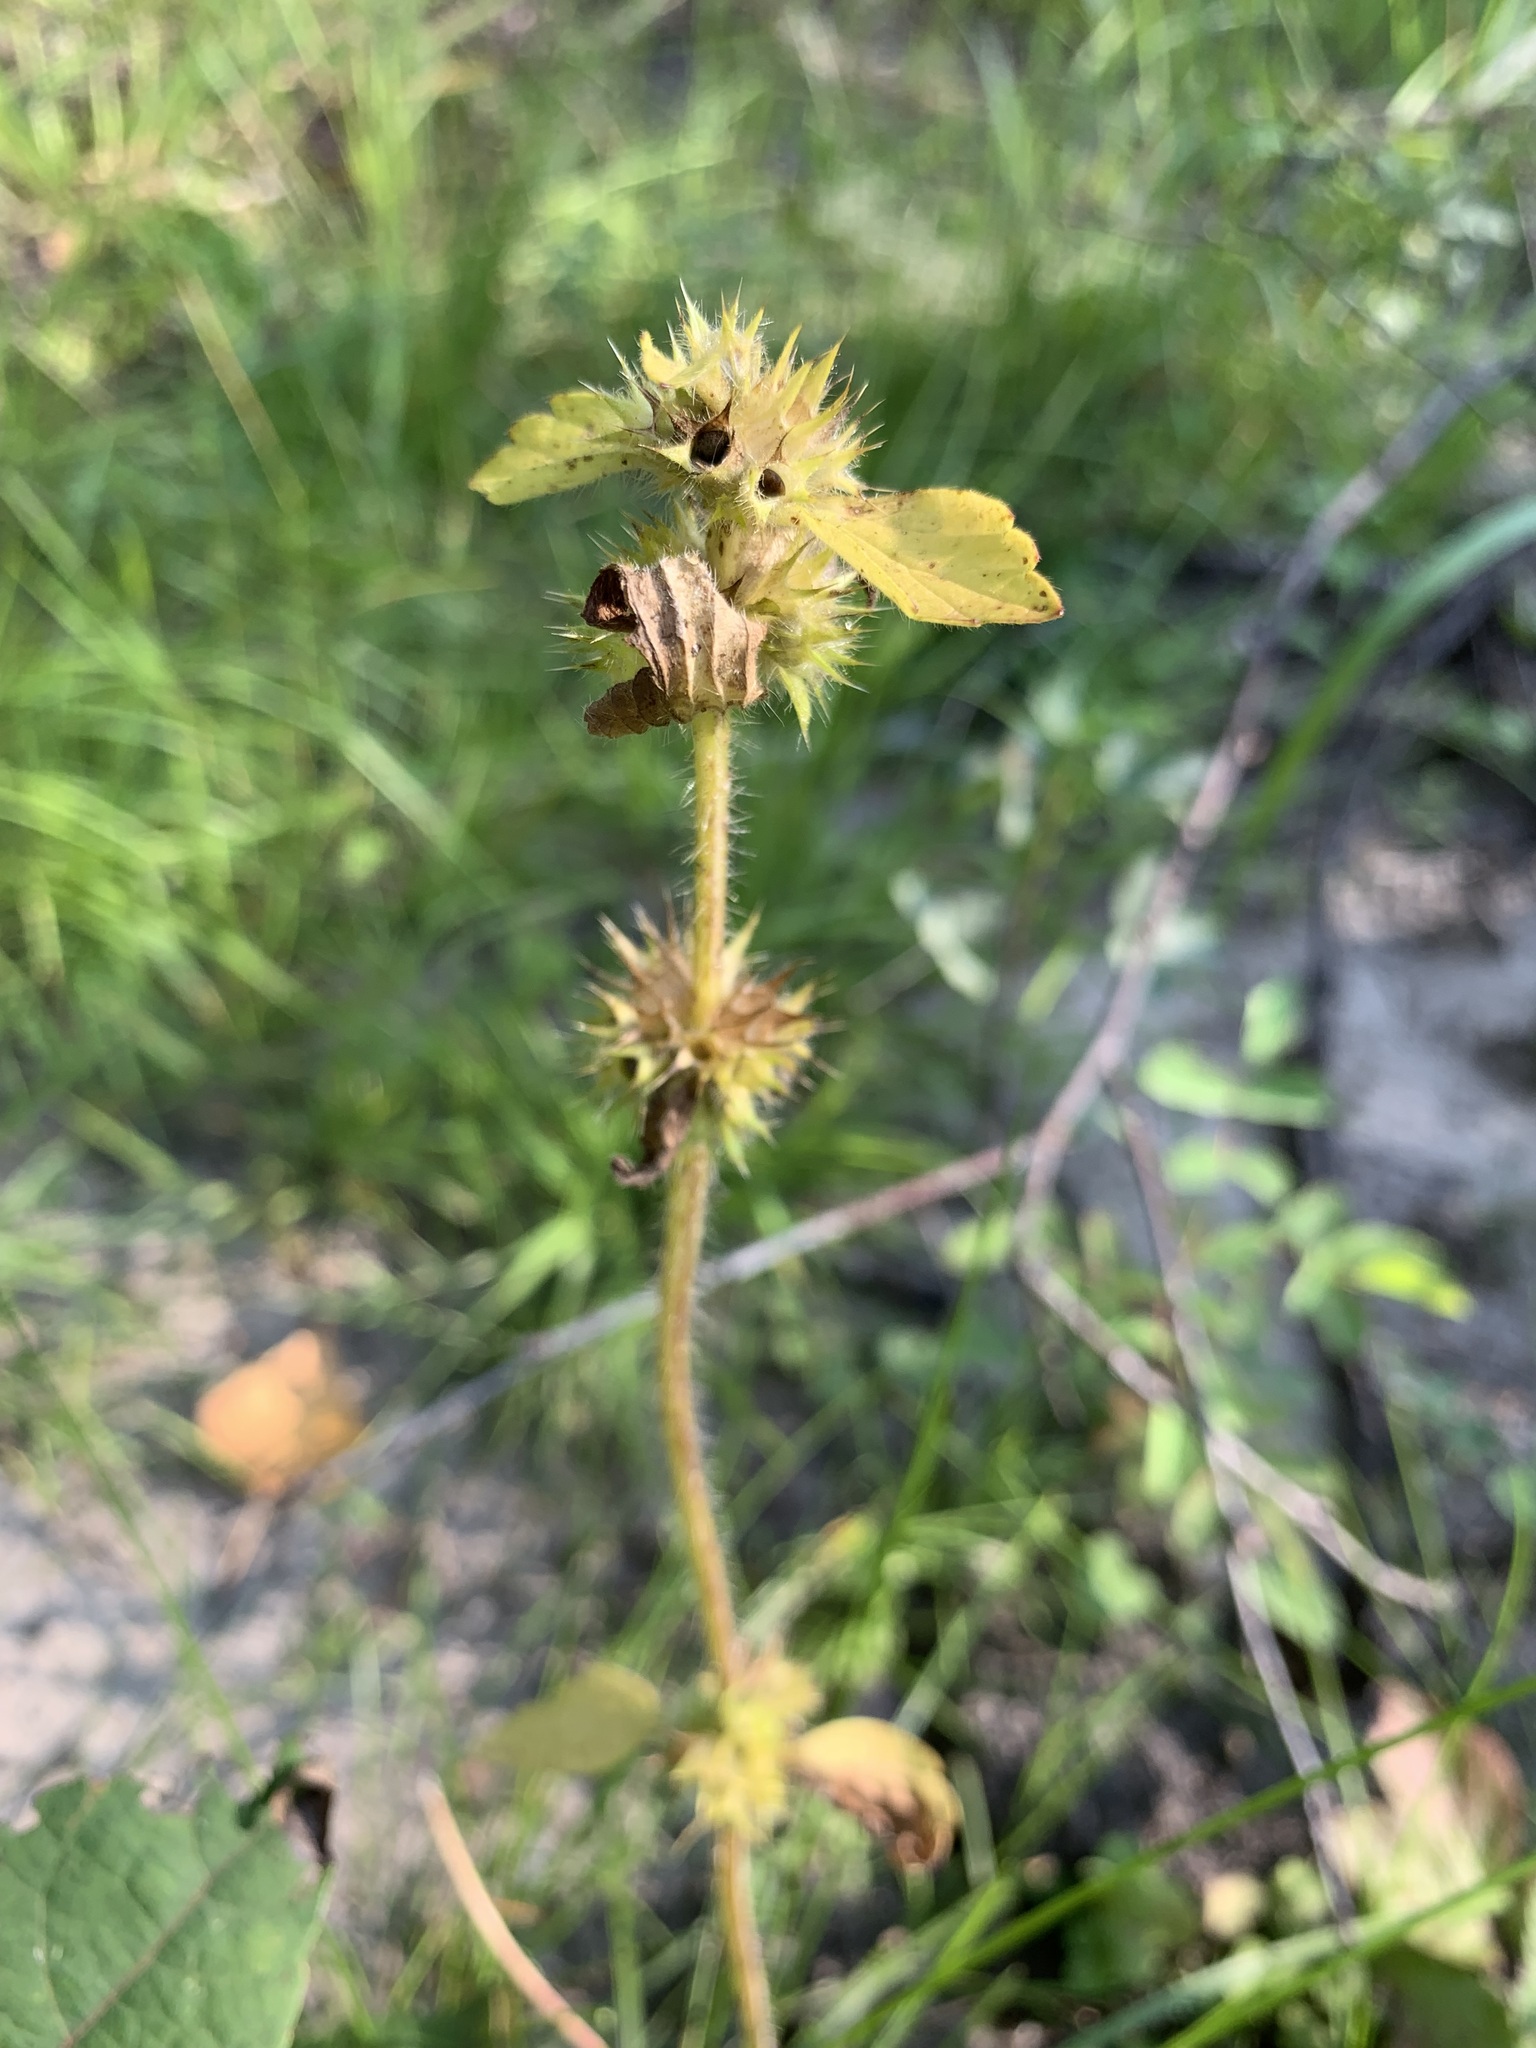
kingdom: Plantae
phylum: Tracheophyta
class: Magnoliopsida
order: Lamiales
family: Lamiaceae
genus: Galeopsis
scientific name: Galeopsis bifida
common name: Bifid hemp-nettle
